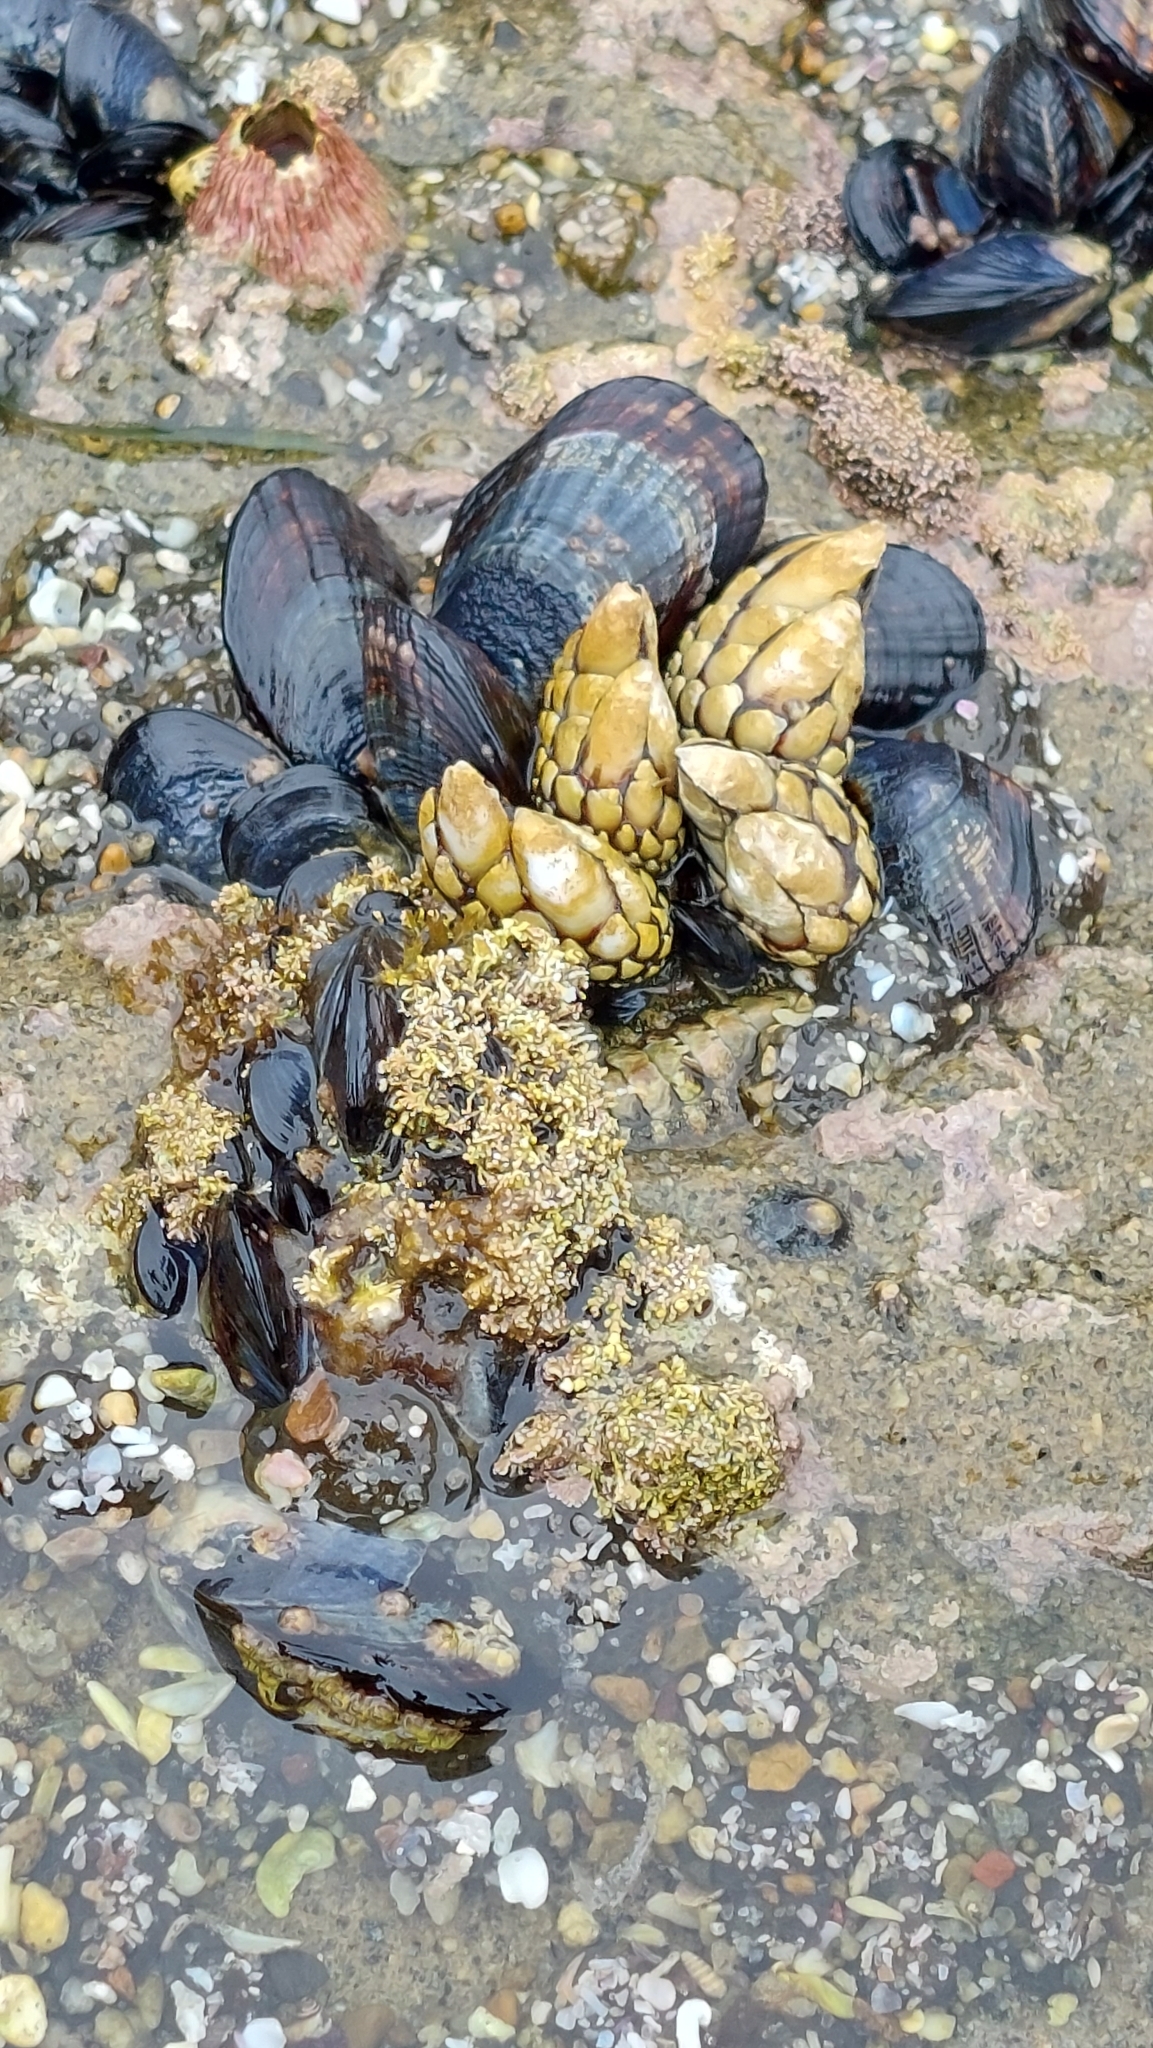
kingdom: Animalia
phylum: Arthropoda
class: Maxillopoda
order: Pedunculata
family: Pollicipedidae
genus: Pollicipes
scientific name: Pollicipes polymerus
